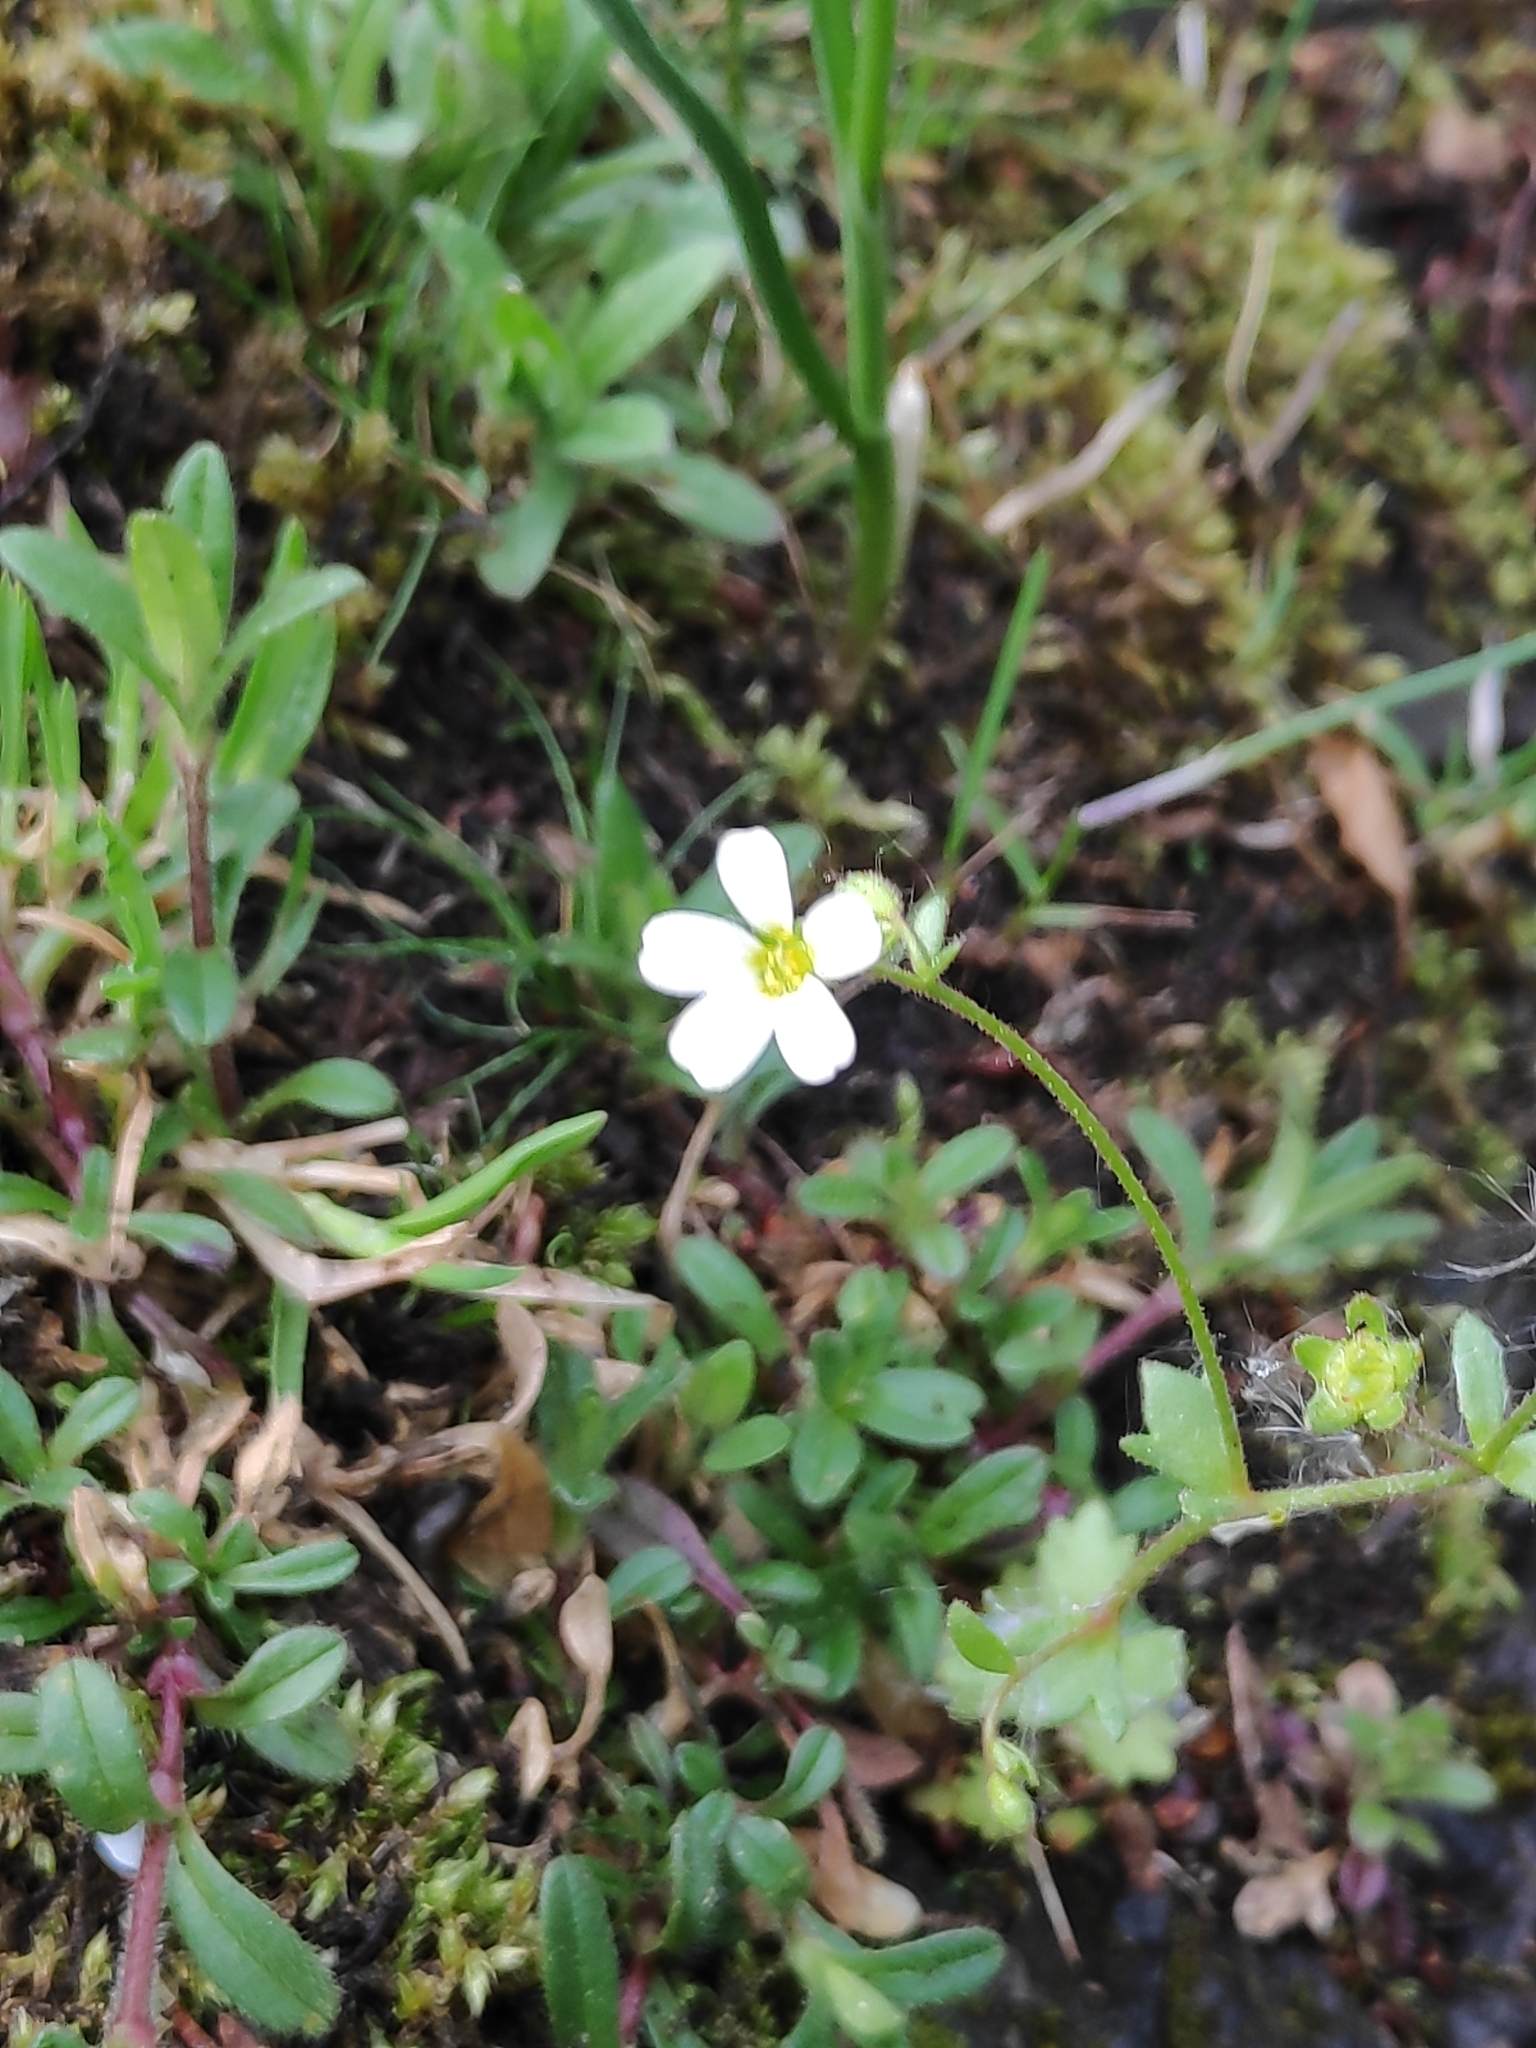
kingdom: Plantae
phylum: Tracheophyta
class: Magnoliopsida
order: Saxifragales
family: Saxifragaceae
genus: Saxifraga
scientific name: Saxifraga osloensis
